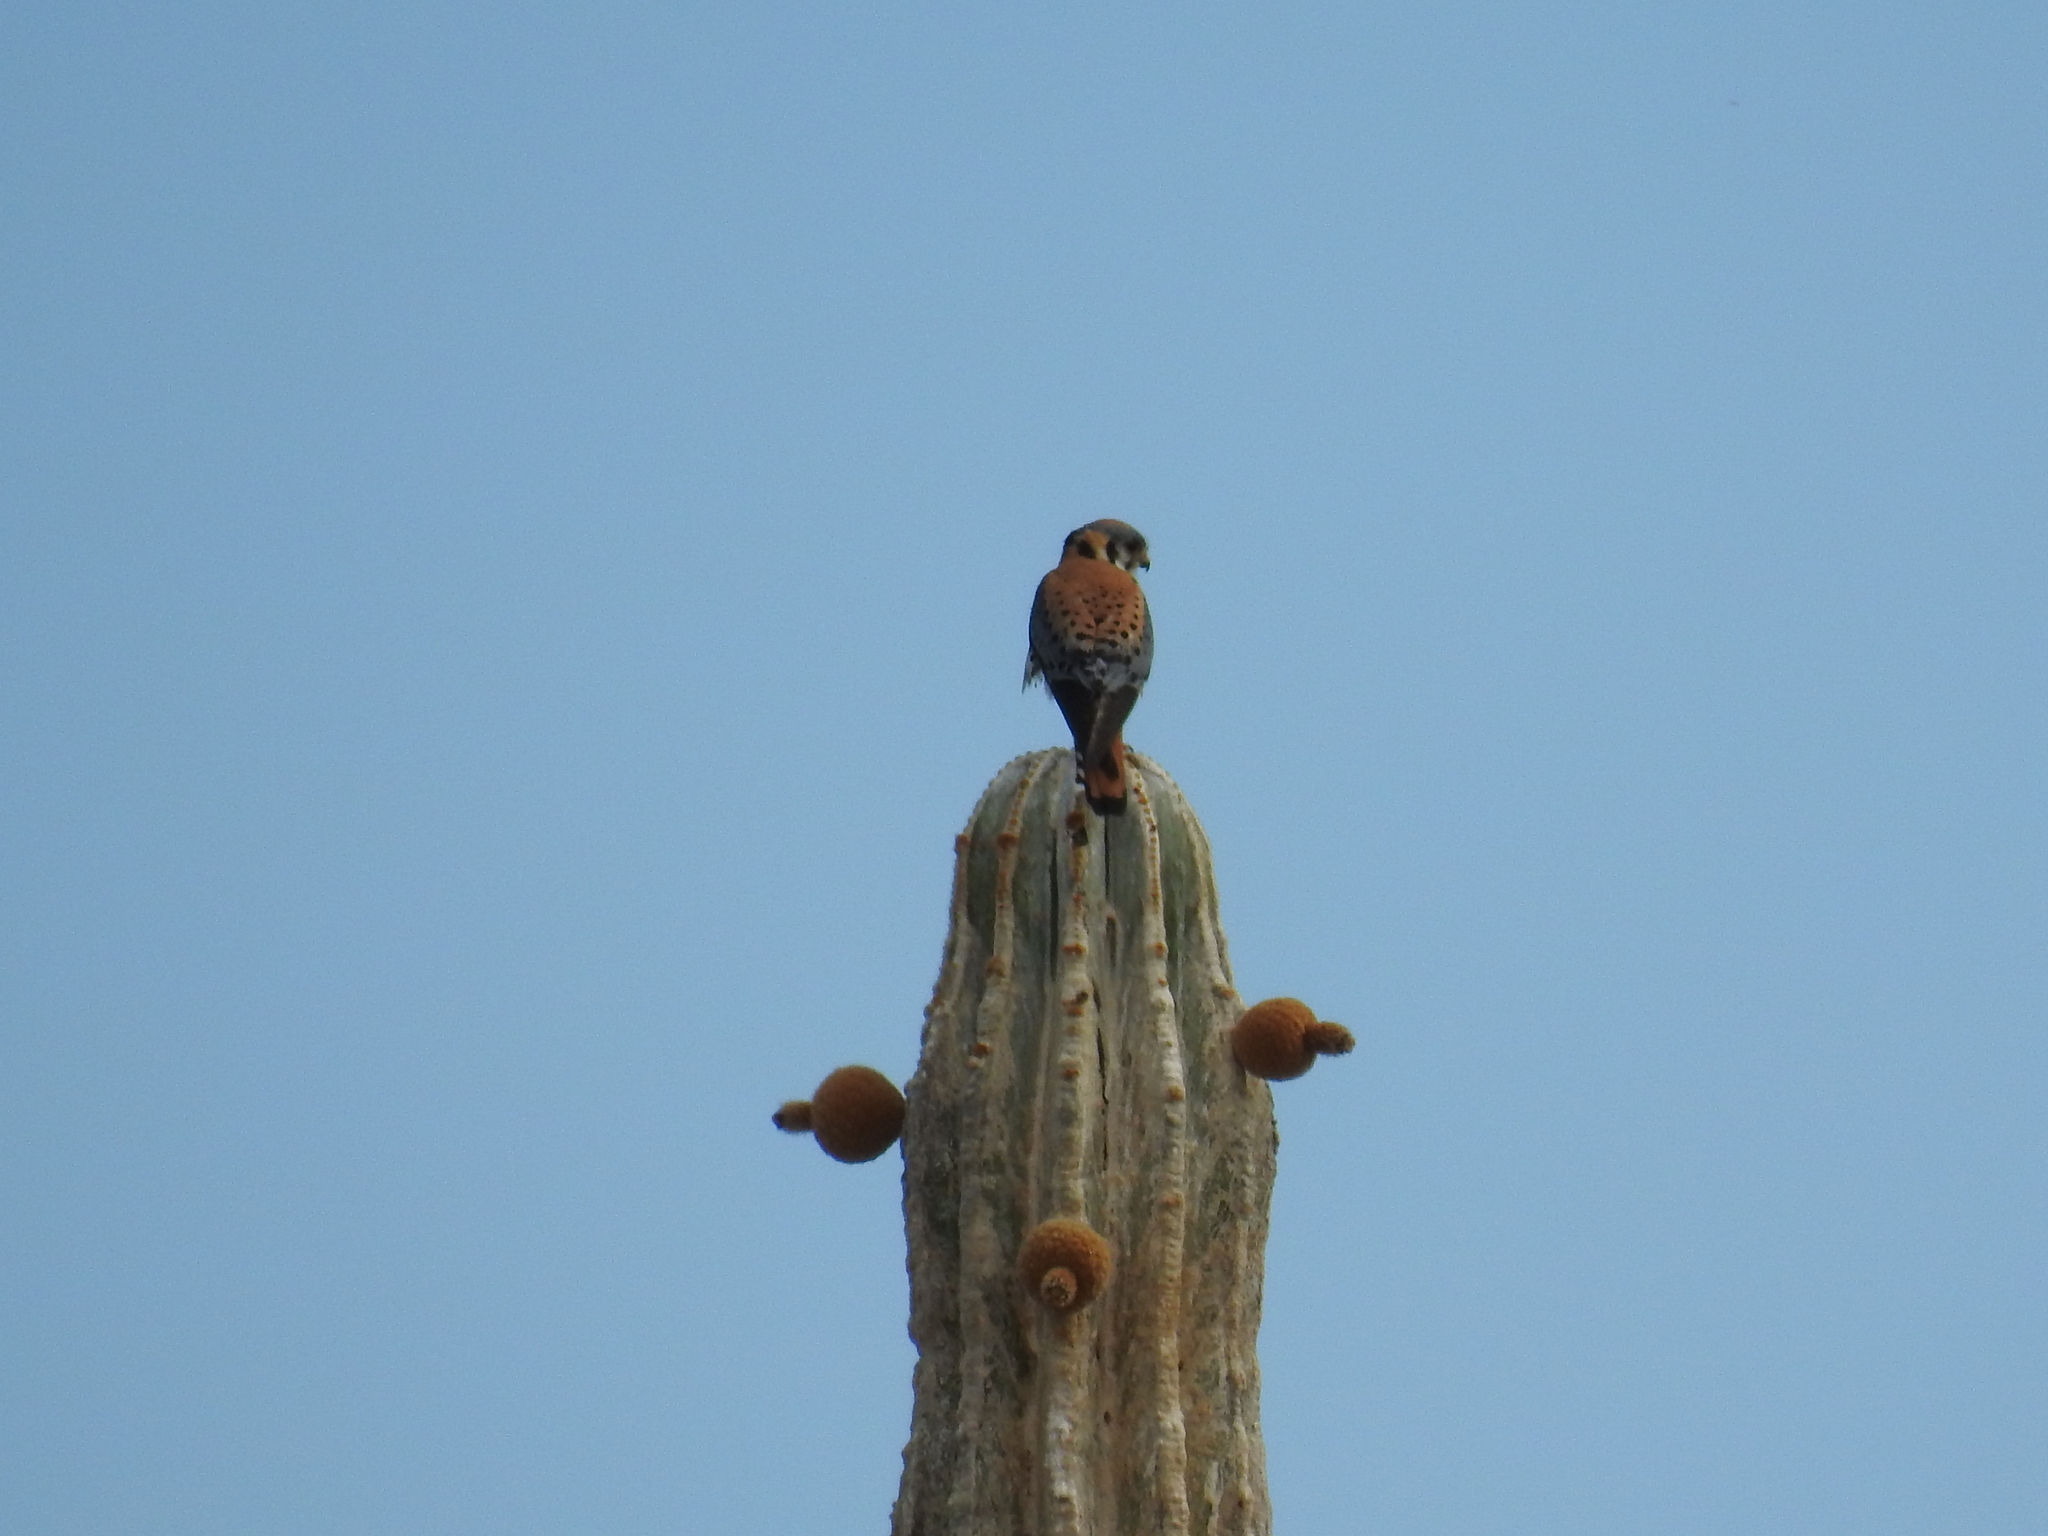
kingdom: Animalia
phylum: Chordata
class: Aves
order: Falconiformes
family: Falconidae
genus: Falco
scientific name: Falco sparverius
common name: American kestrel
